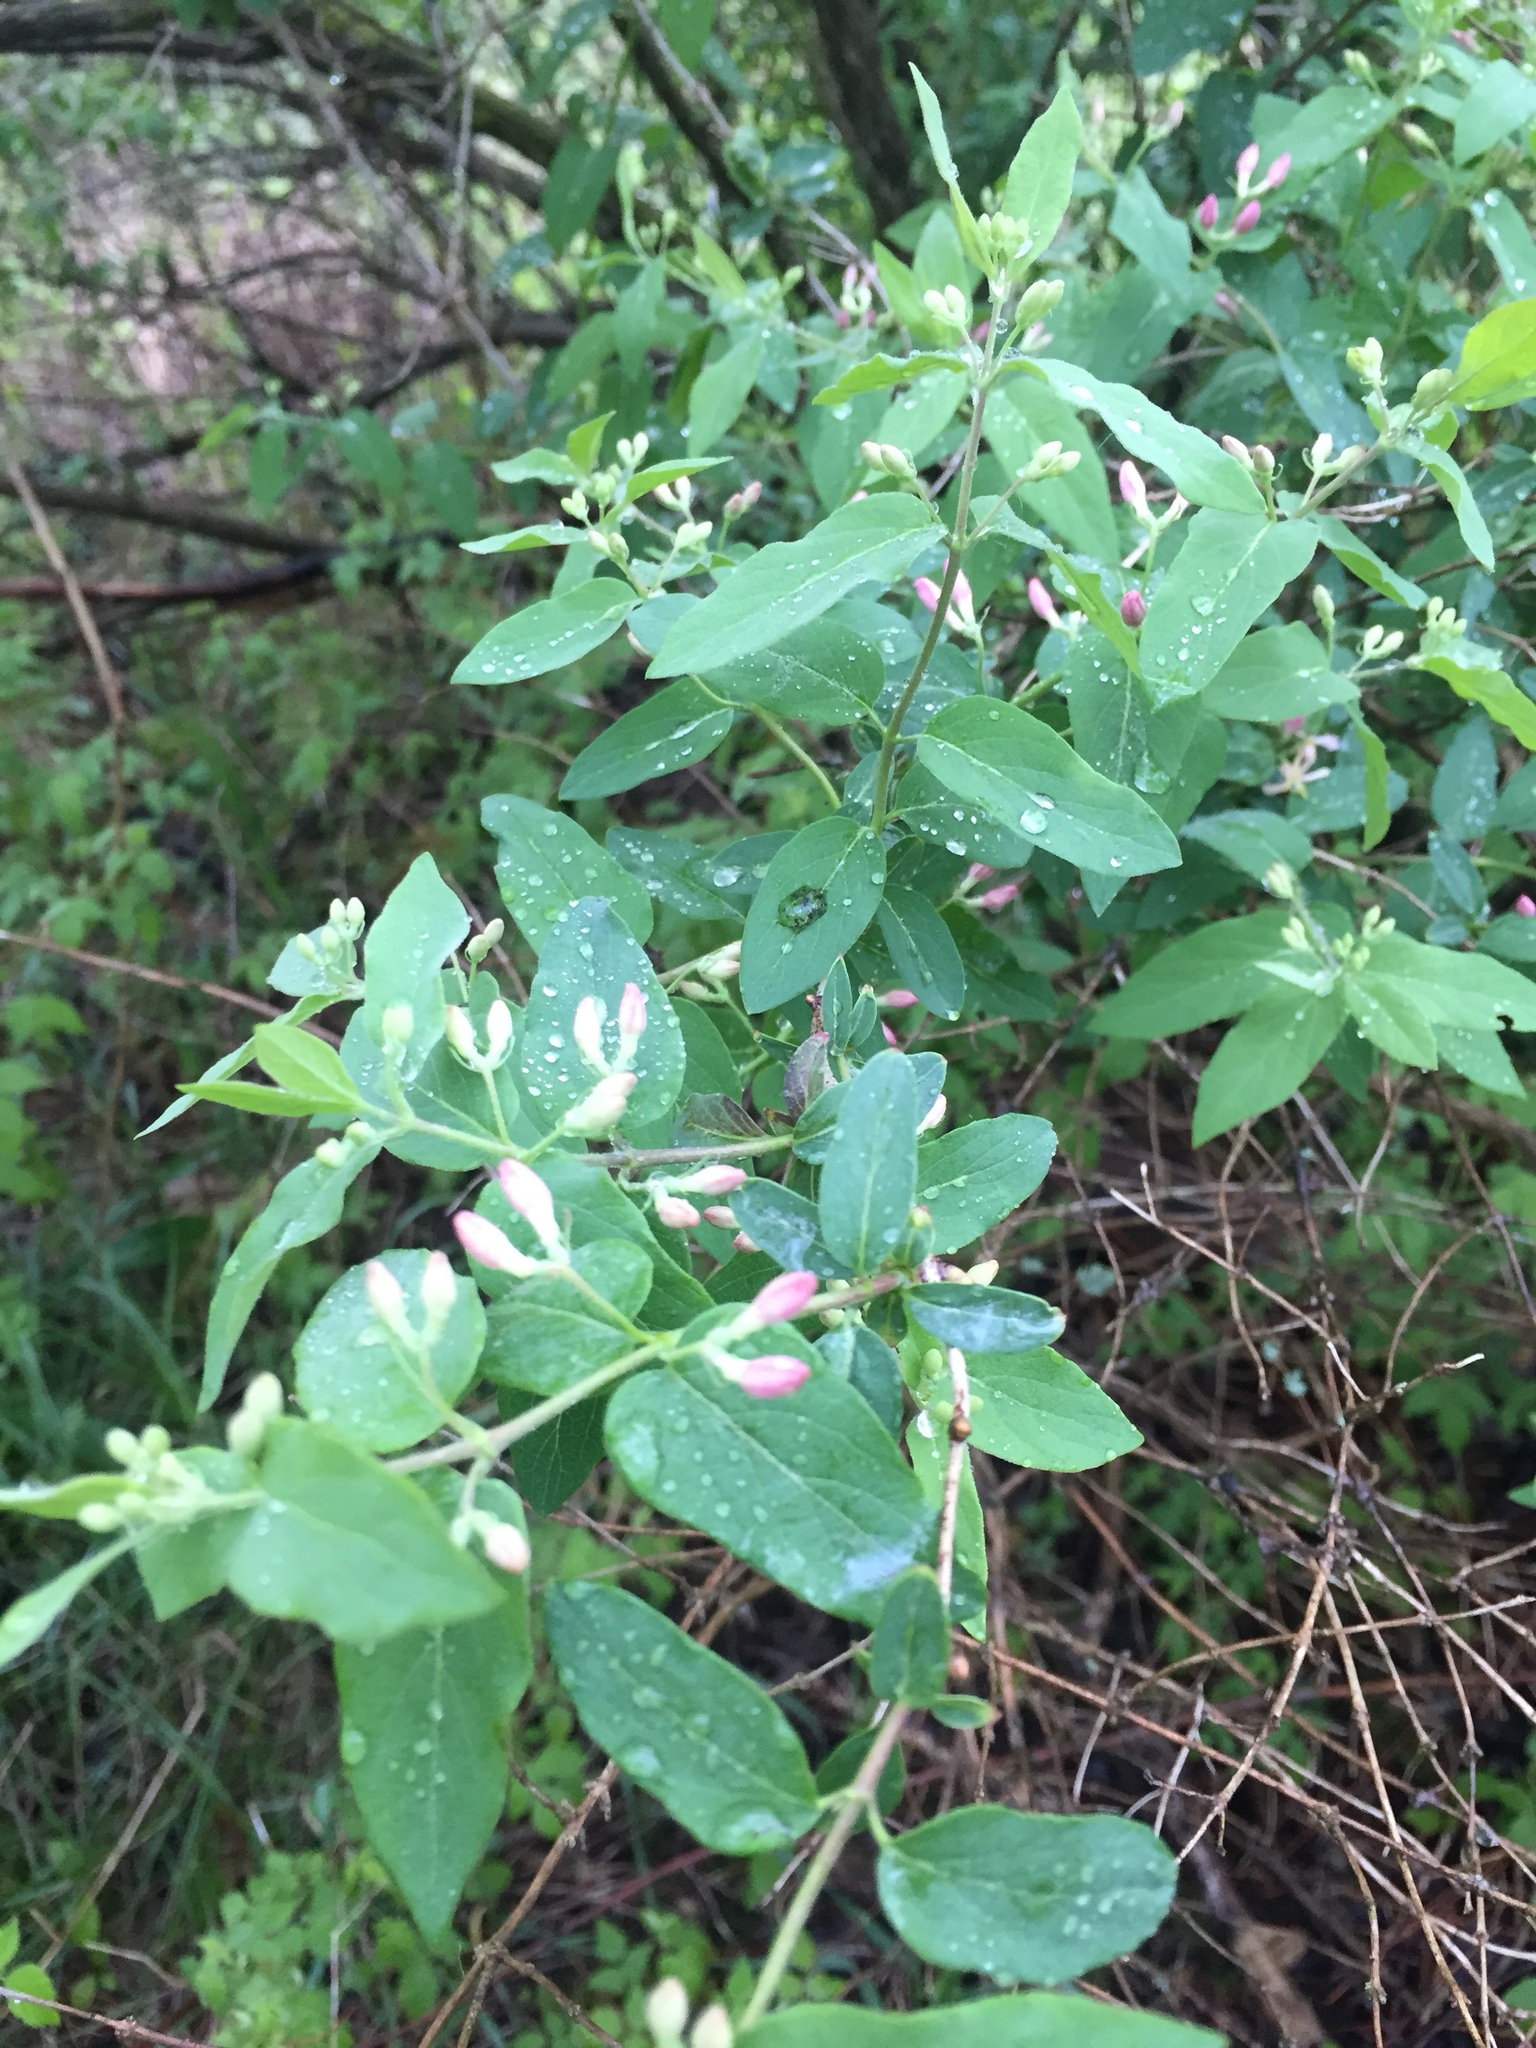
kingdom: Plantae
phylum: Tracheophyta
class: Magnoliopsida
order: Dipsacales
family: Caprifoliaceae
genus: Lonicera
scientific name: Lonicera bella
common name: Bell's honeysuckle
